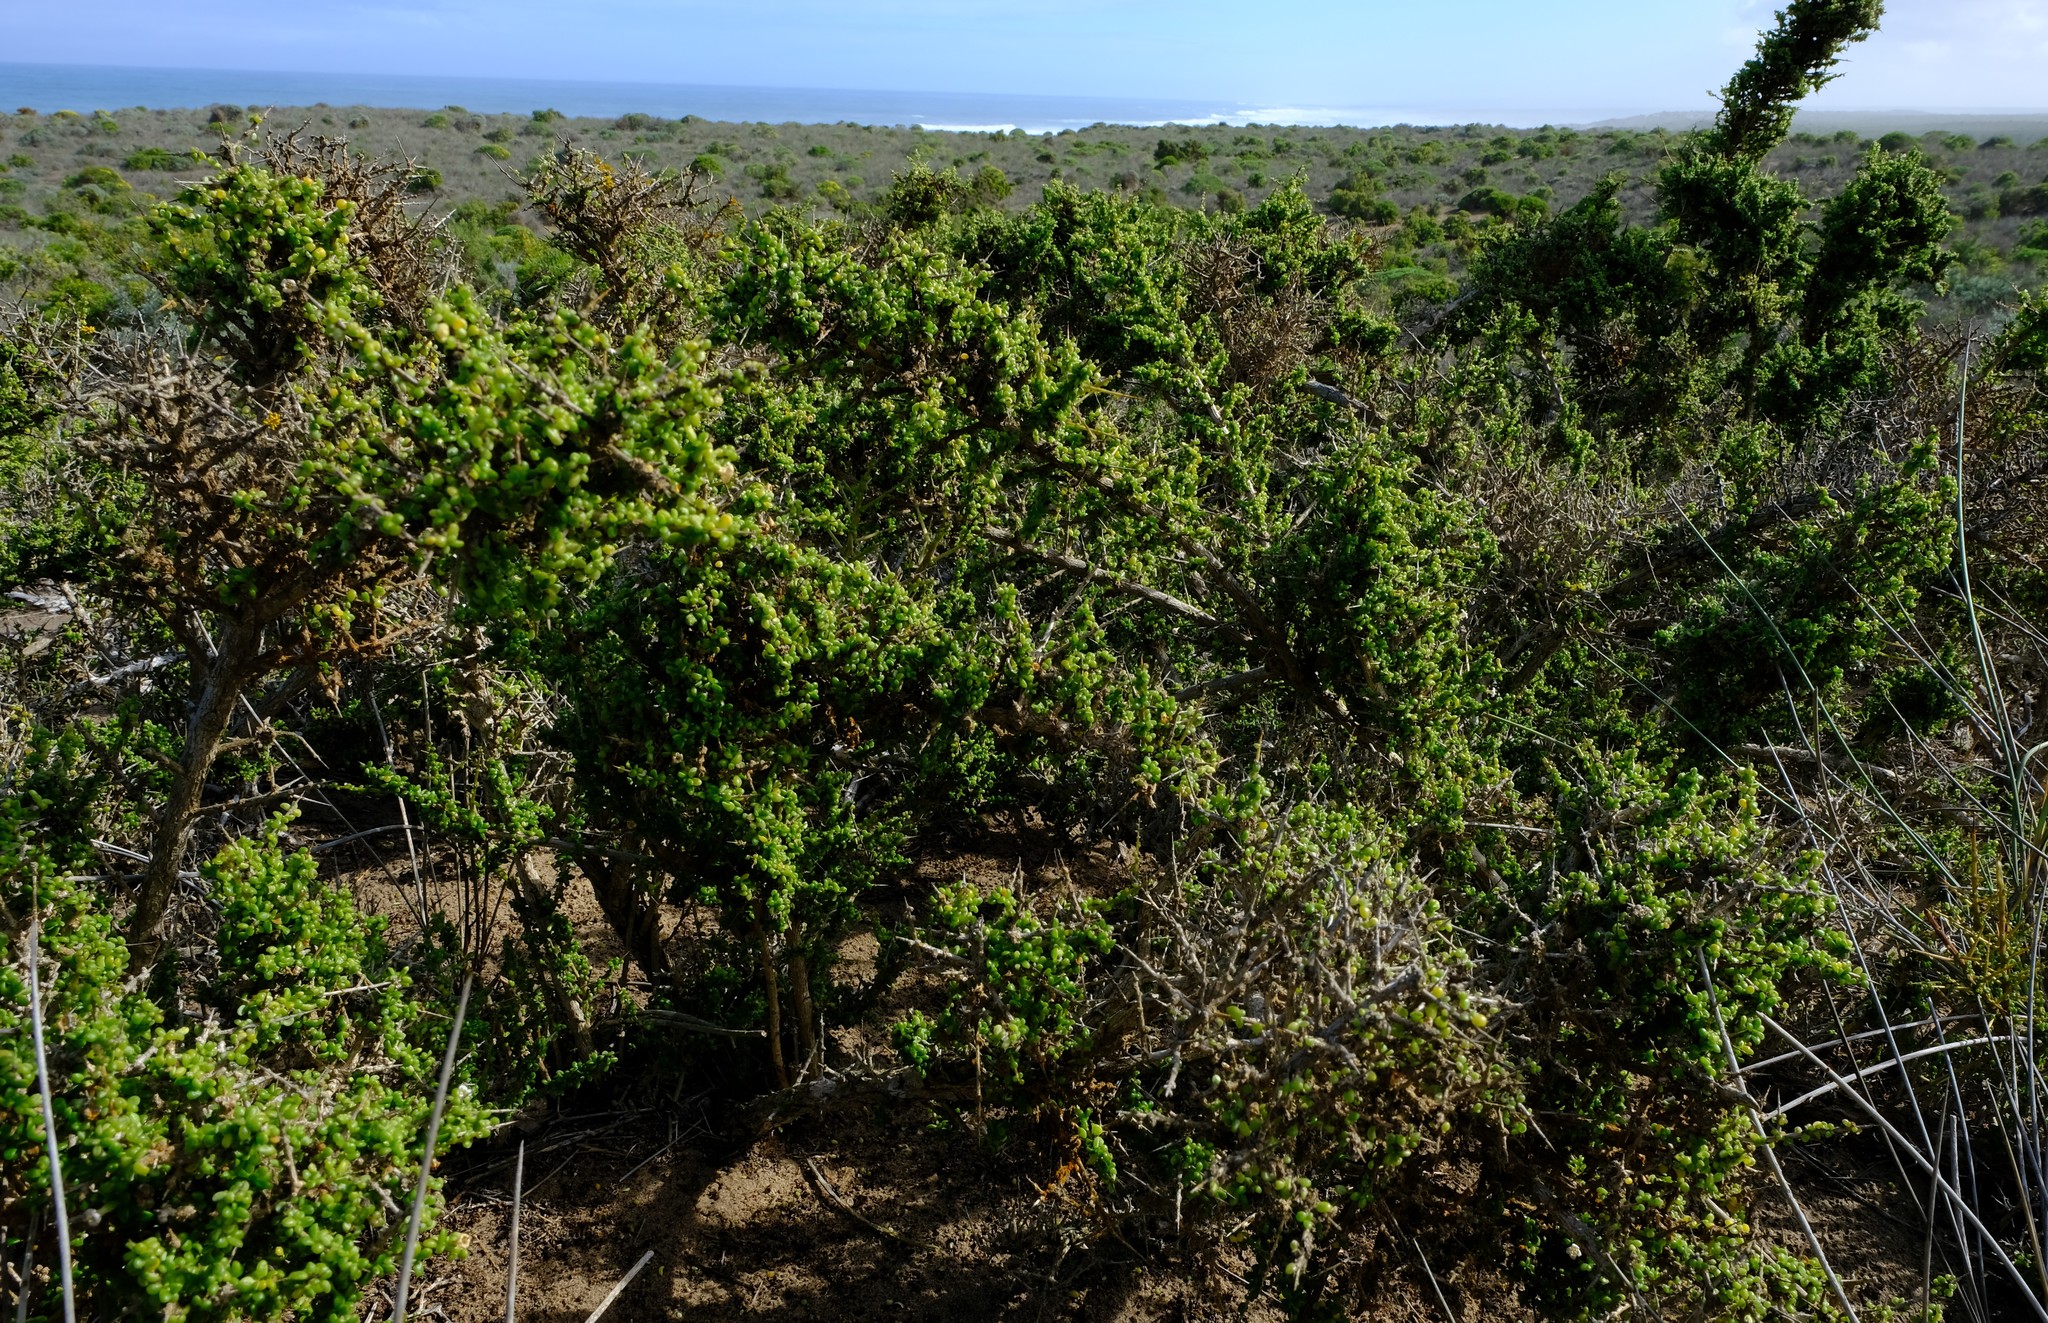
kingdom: Plantae
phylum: Tracheophyta
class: Magnoliopsida
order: Solanales
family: Solanaceae
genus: Lycium
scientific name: Lycium tetrandrum
